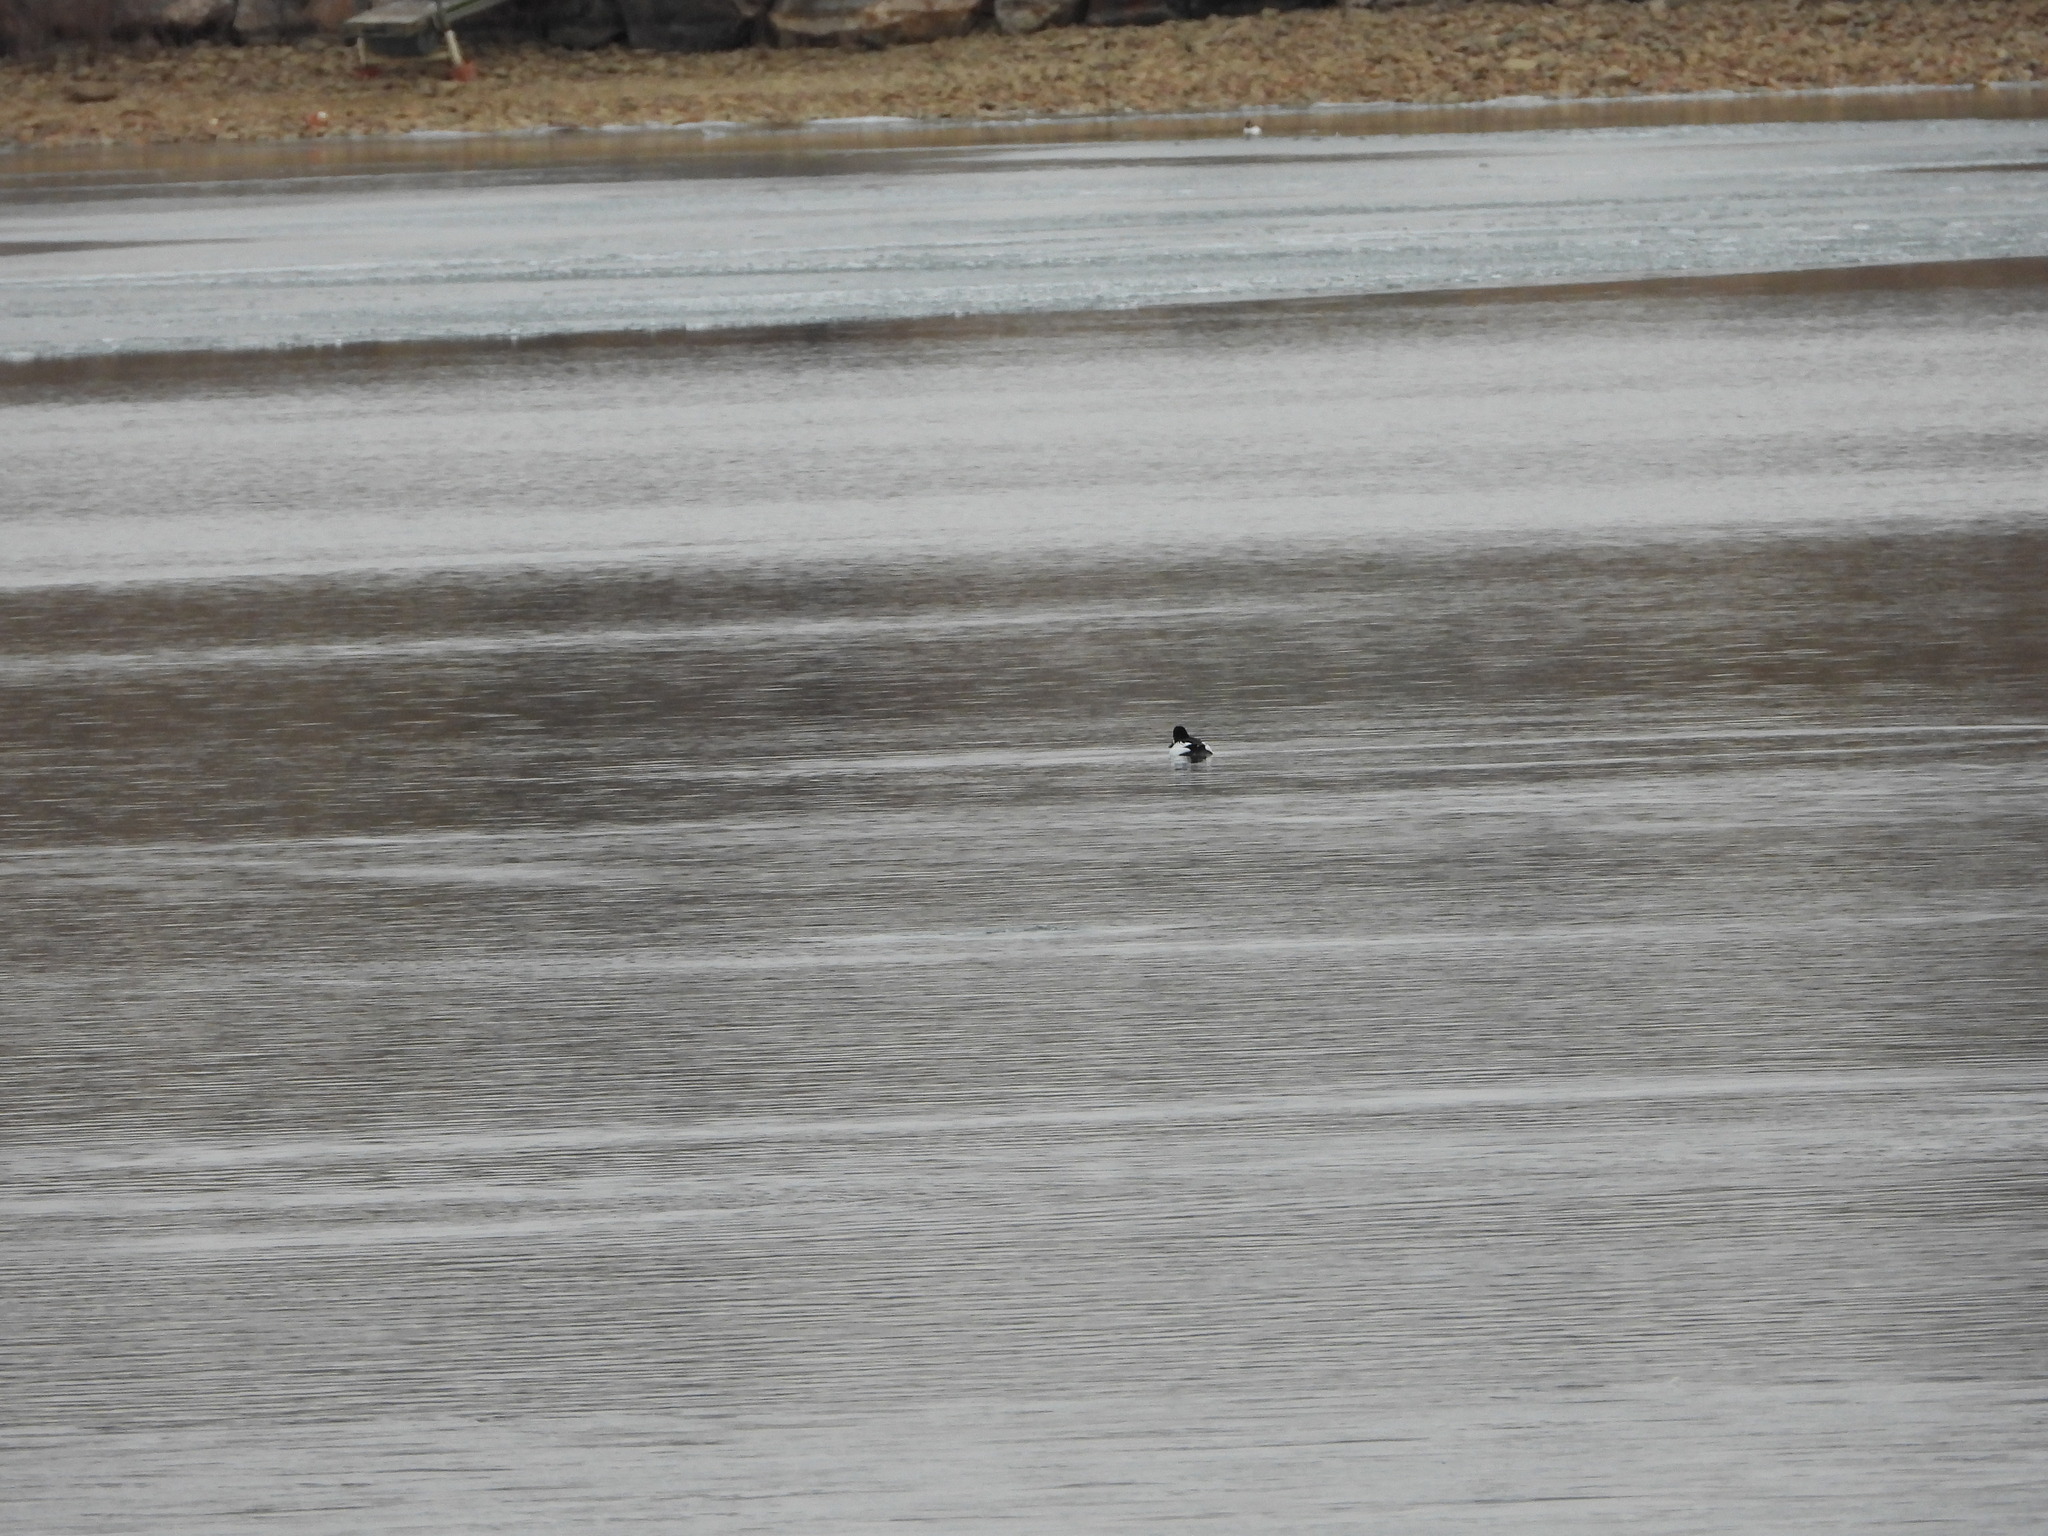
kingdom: Animalia
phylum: Chordata
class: Aves
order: Anseriformes
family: Anatidae
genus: Bucephala
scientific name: Bucephala clangula
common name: Common goldeneye
